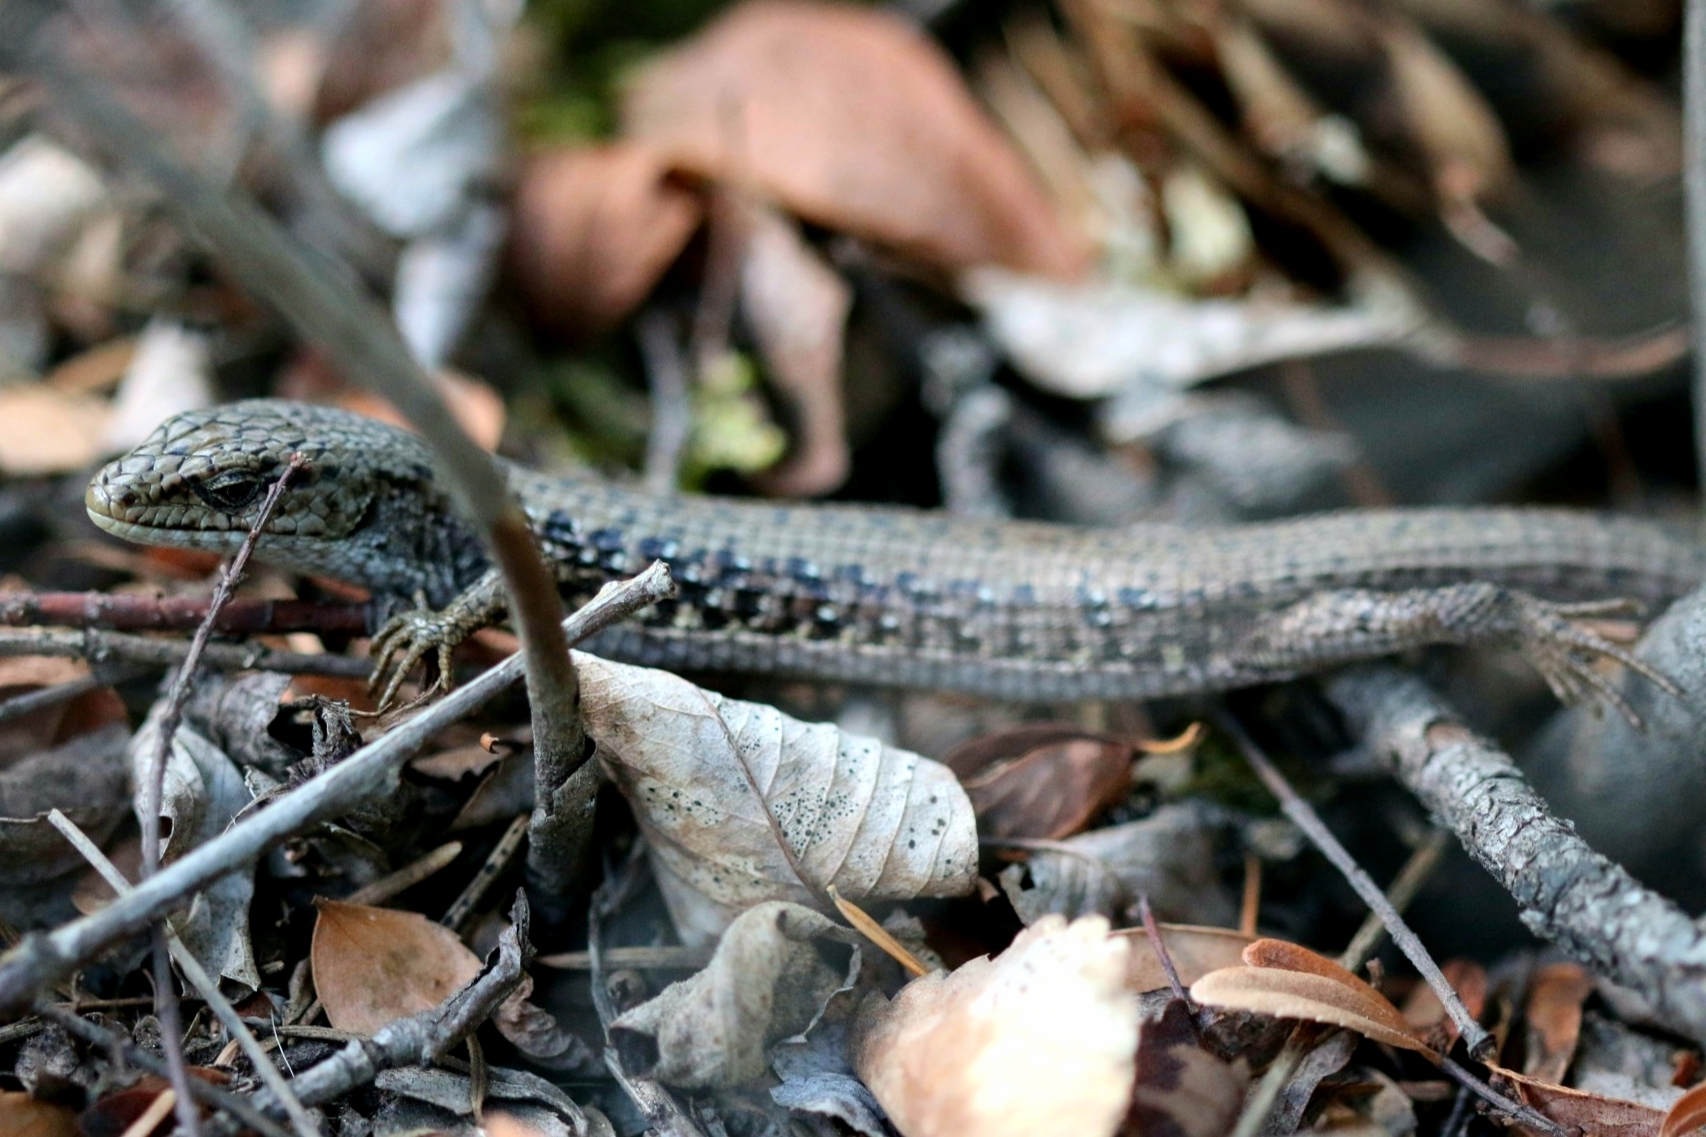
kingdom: Animalia
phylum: Chordata
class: Squamata
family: Anguidae
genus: Elgaria
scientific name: Elgaria coerulea
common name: Northern alligator lizard
